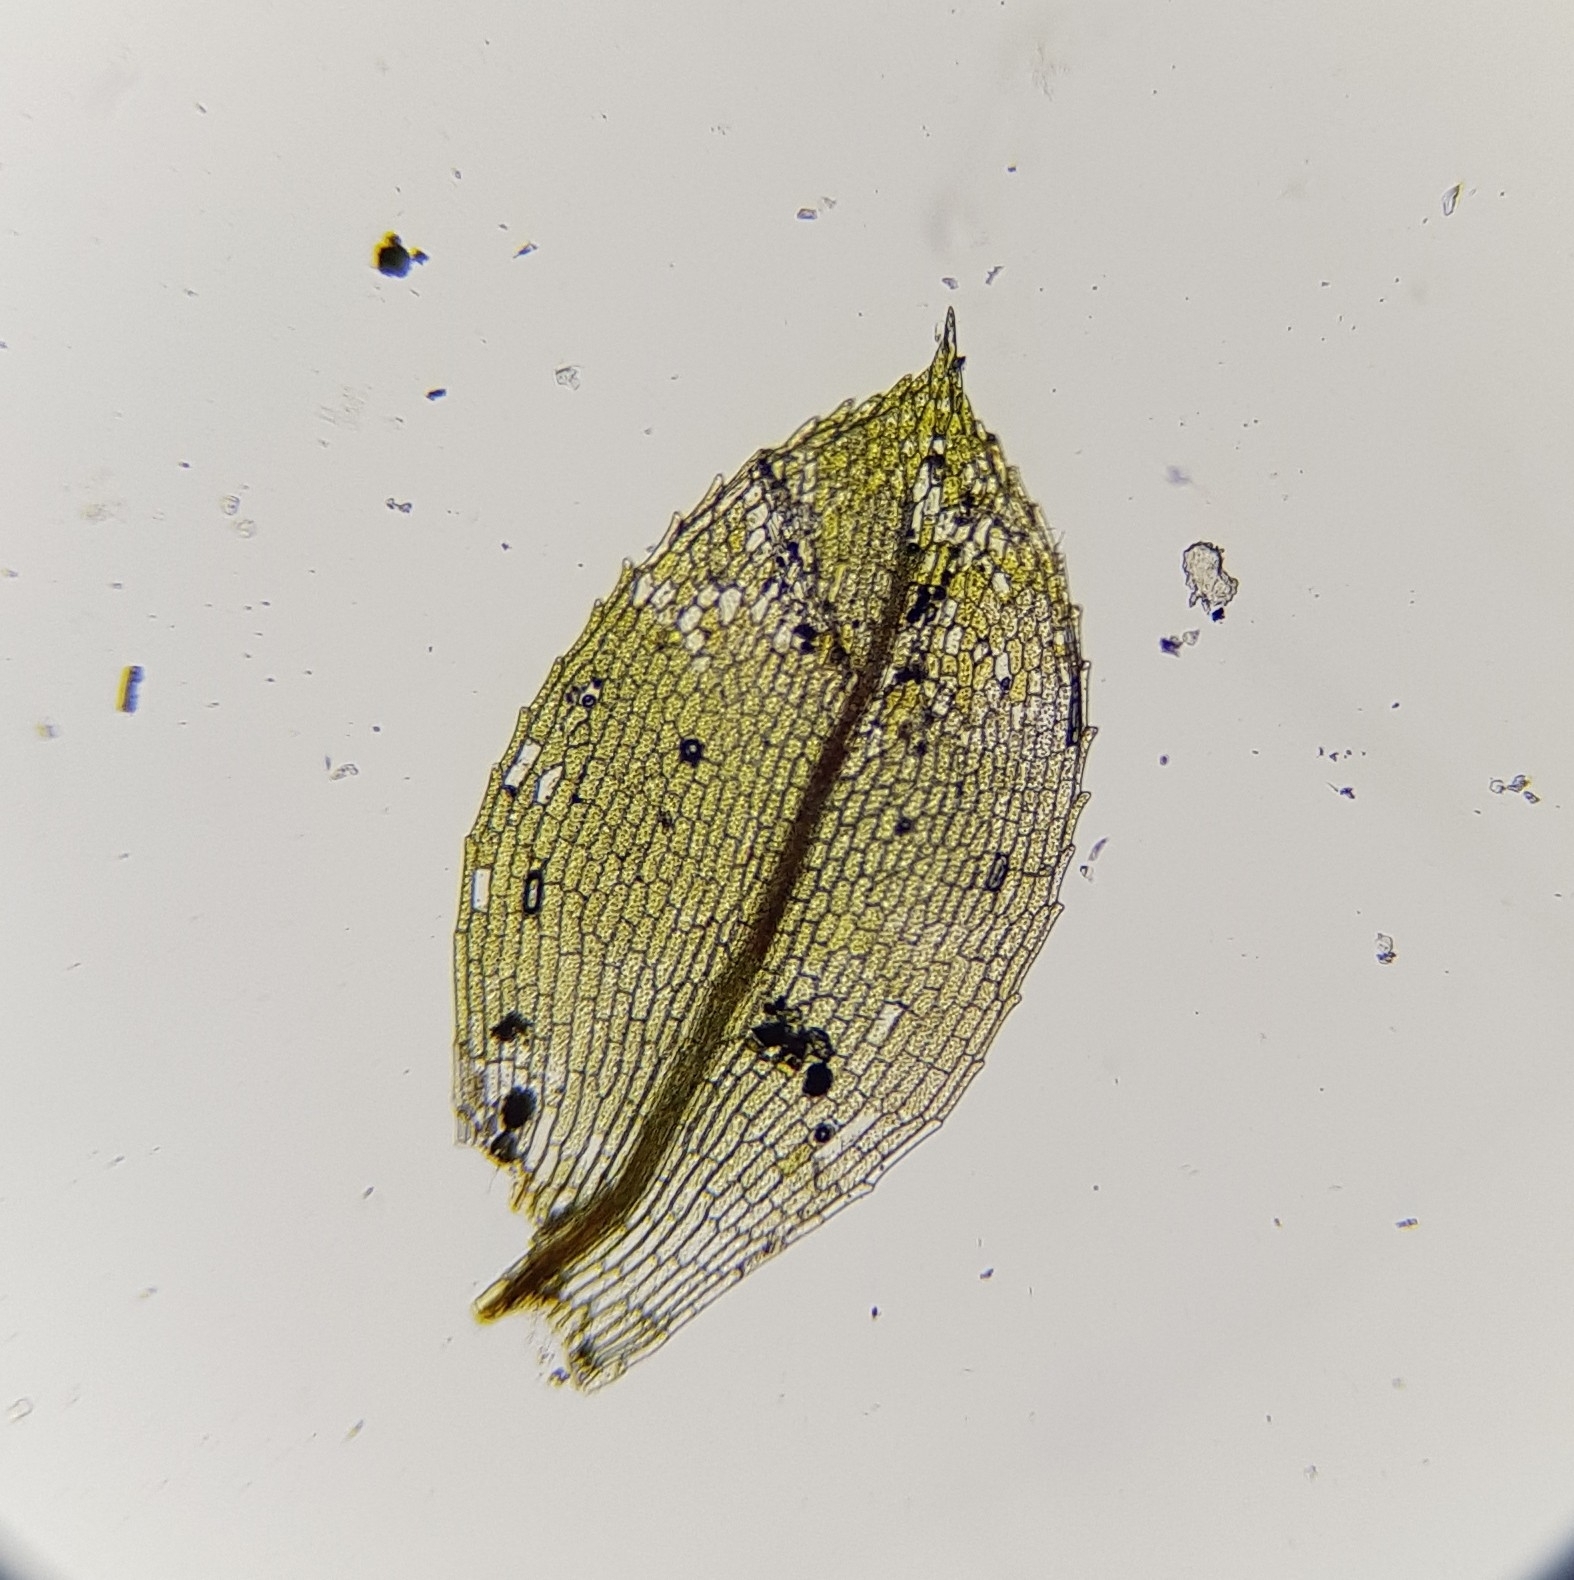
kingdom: Plantae
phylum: Bryophyta
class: Bryopsida
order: Funariales
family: Funariaceae
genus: Entosthodon
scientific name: Entosthodon fascicularis
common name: Hasselquist's hyssop
